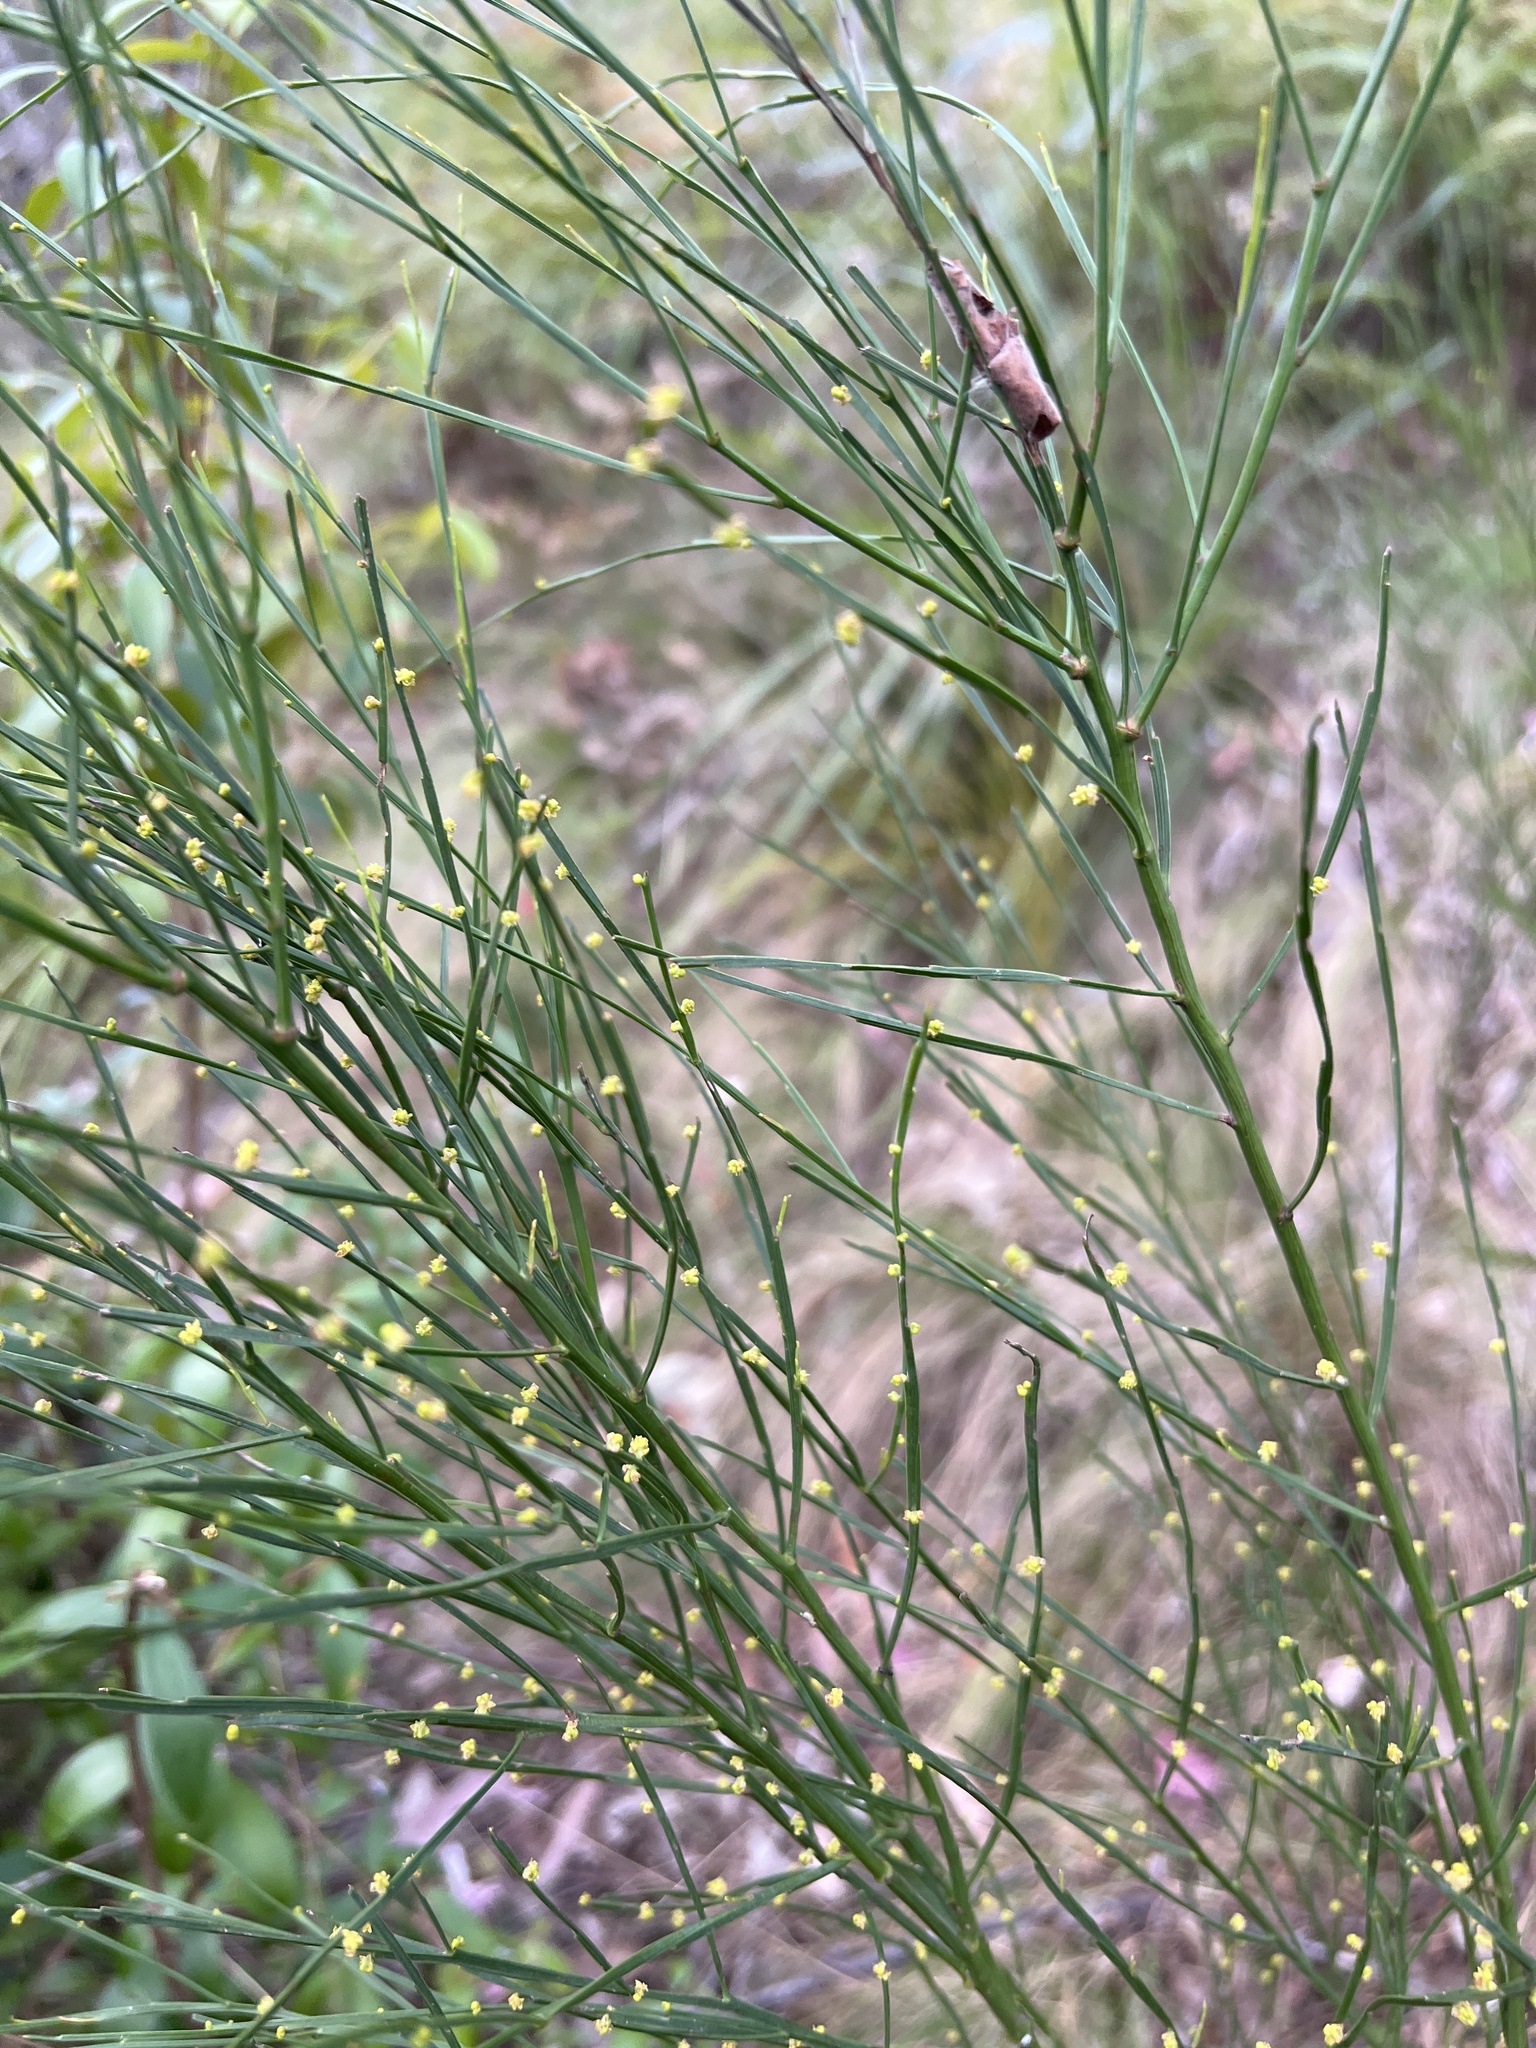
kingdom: Plantae
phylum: Tracheophyta
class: Magnoliopsida
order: Santalales
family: Santalaceae
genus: Exocarpos
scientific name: Exocarpos strictus
